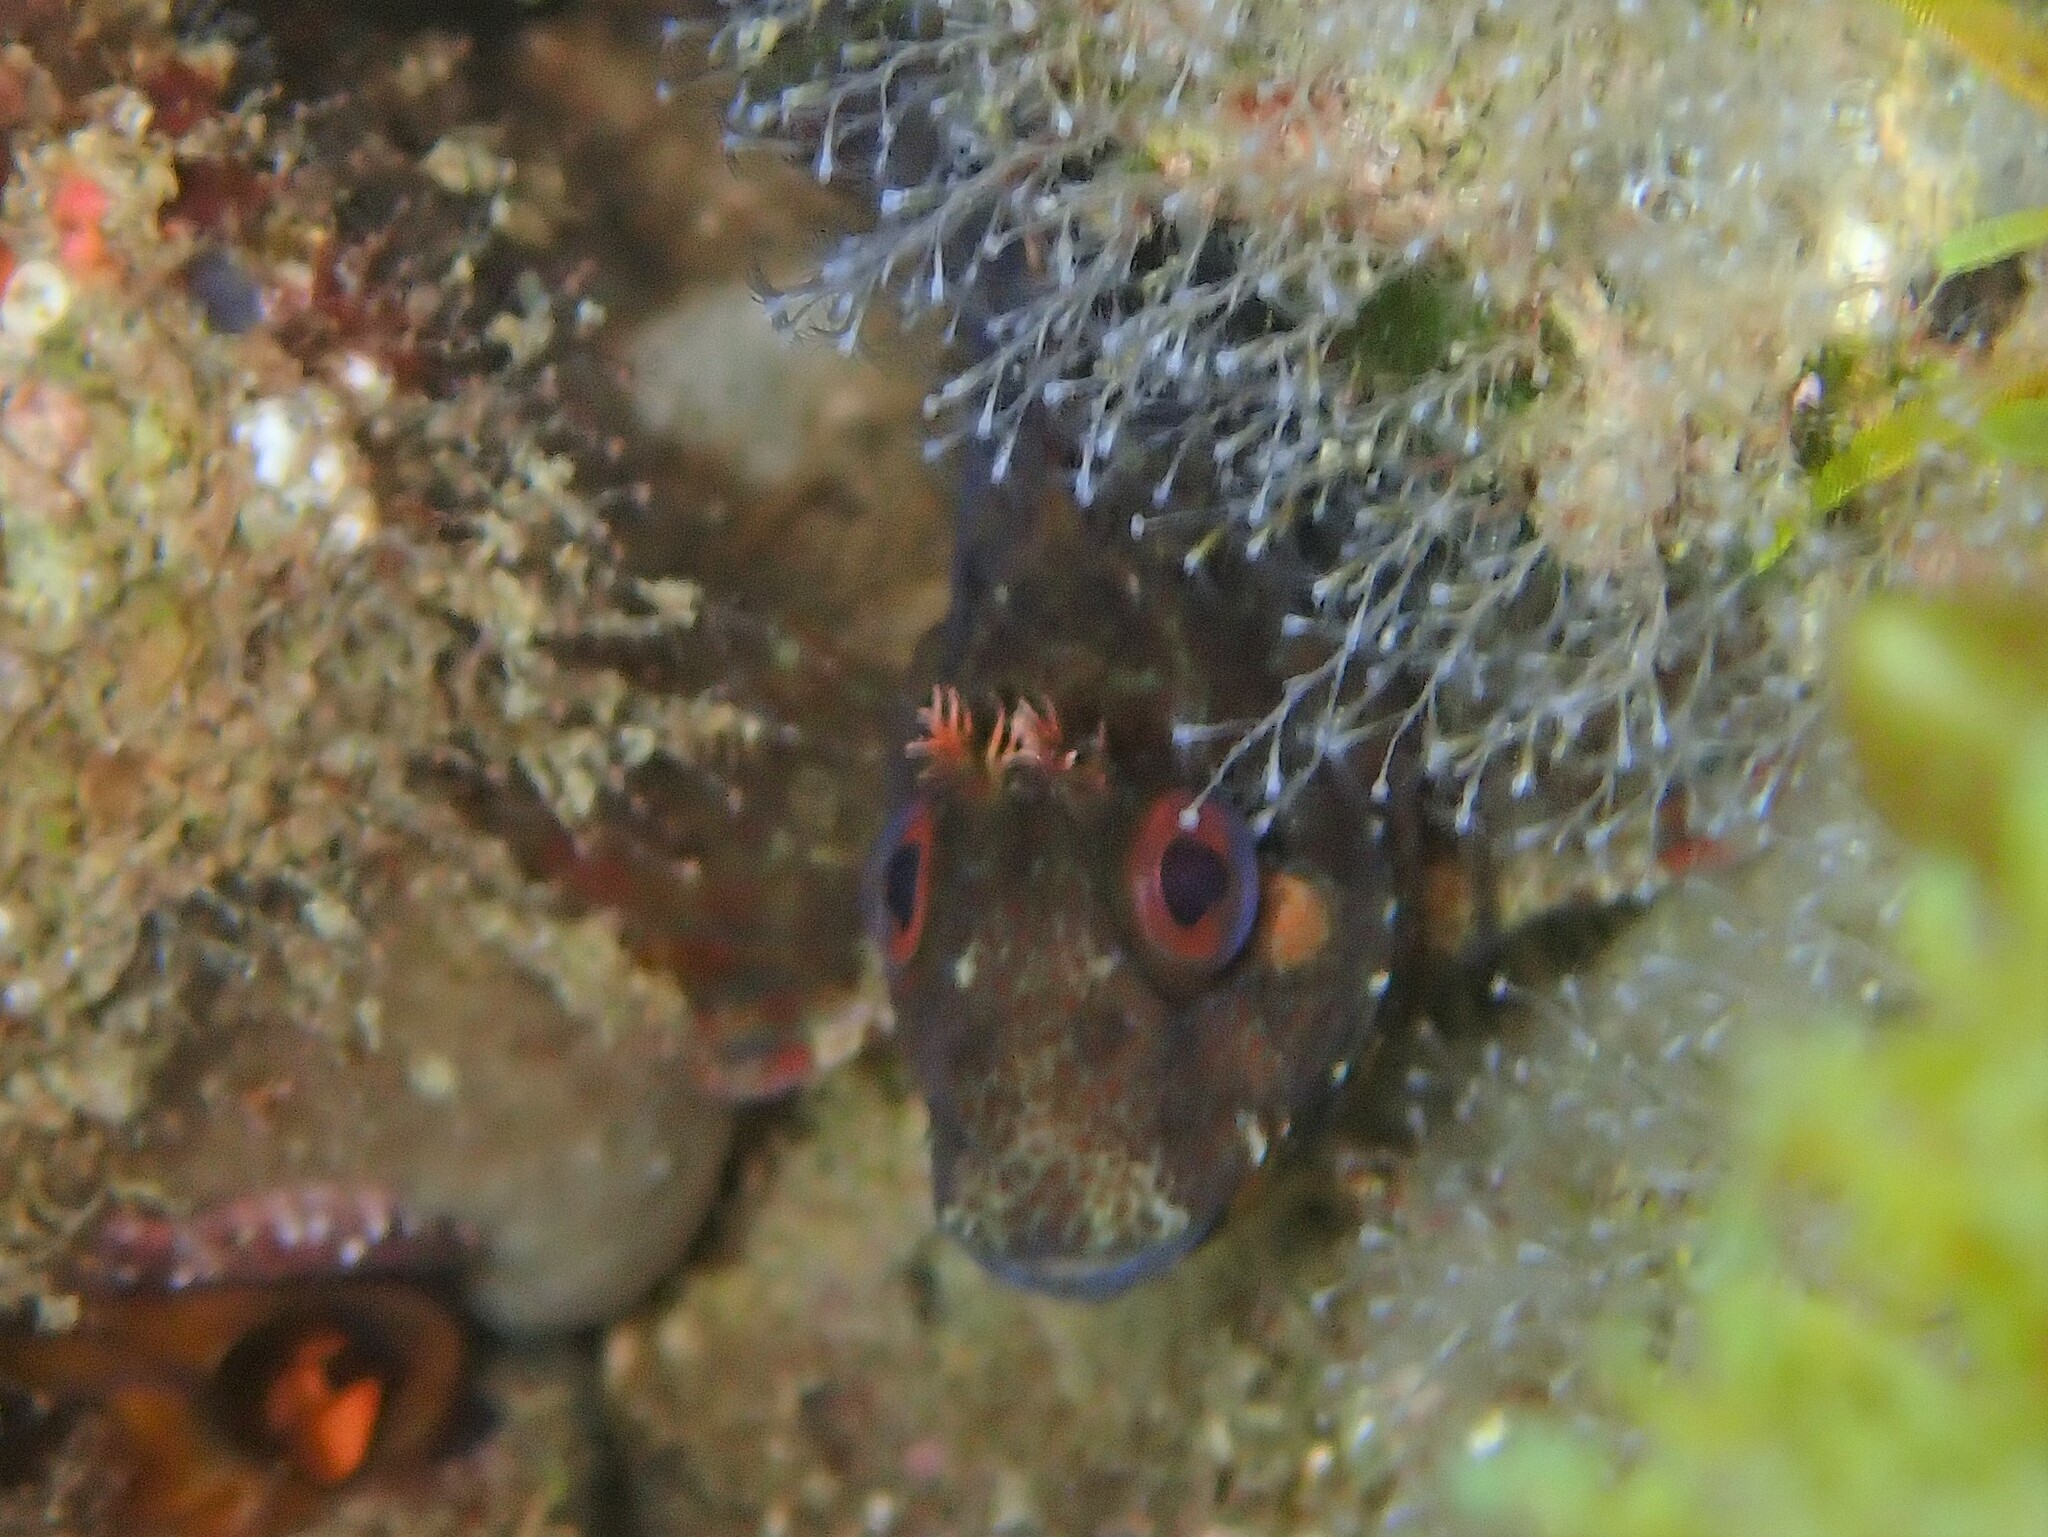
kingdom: Animalia
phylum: Chordata
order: Perciformes
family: Blenniidae
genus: Parablennius
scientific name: Parablennius gattorugine
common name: Tompot blenny
